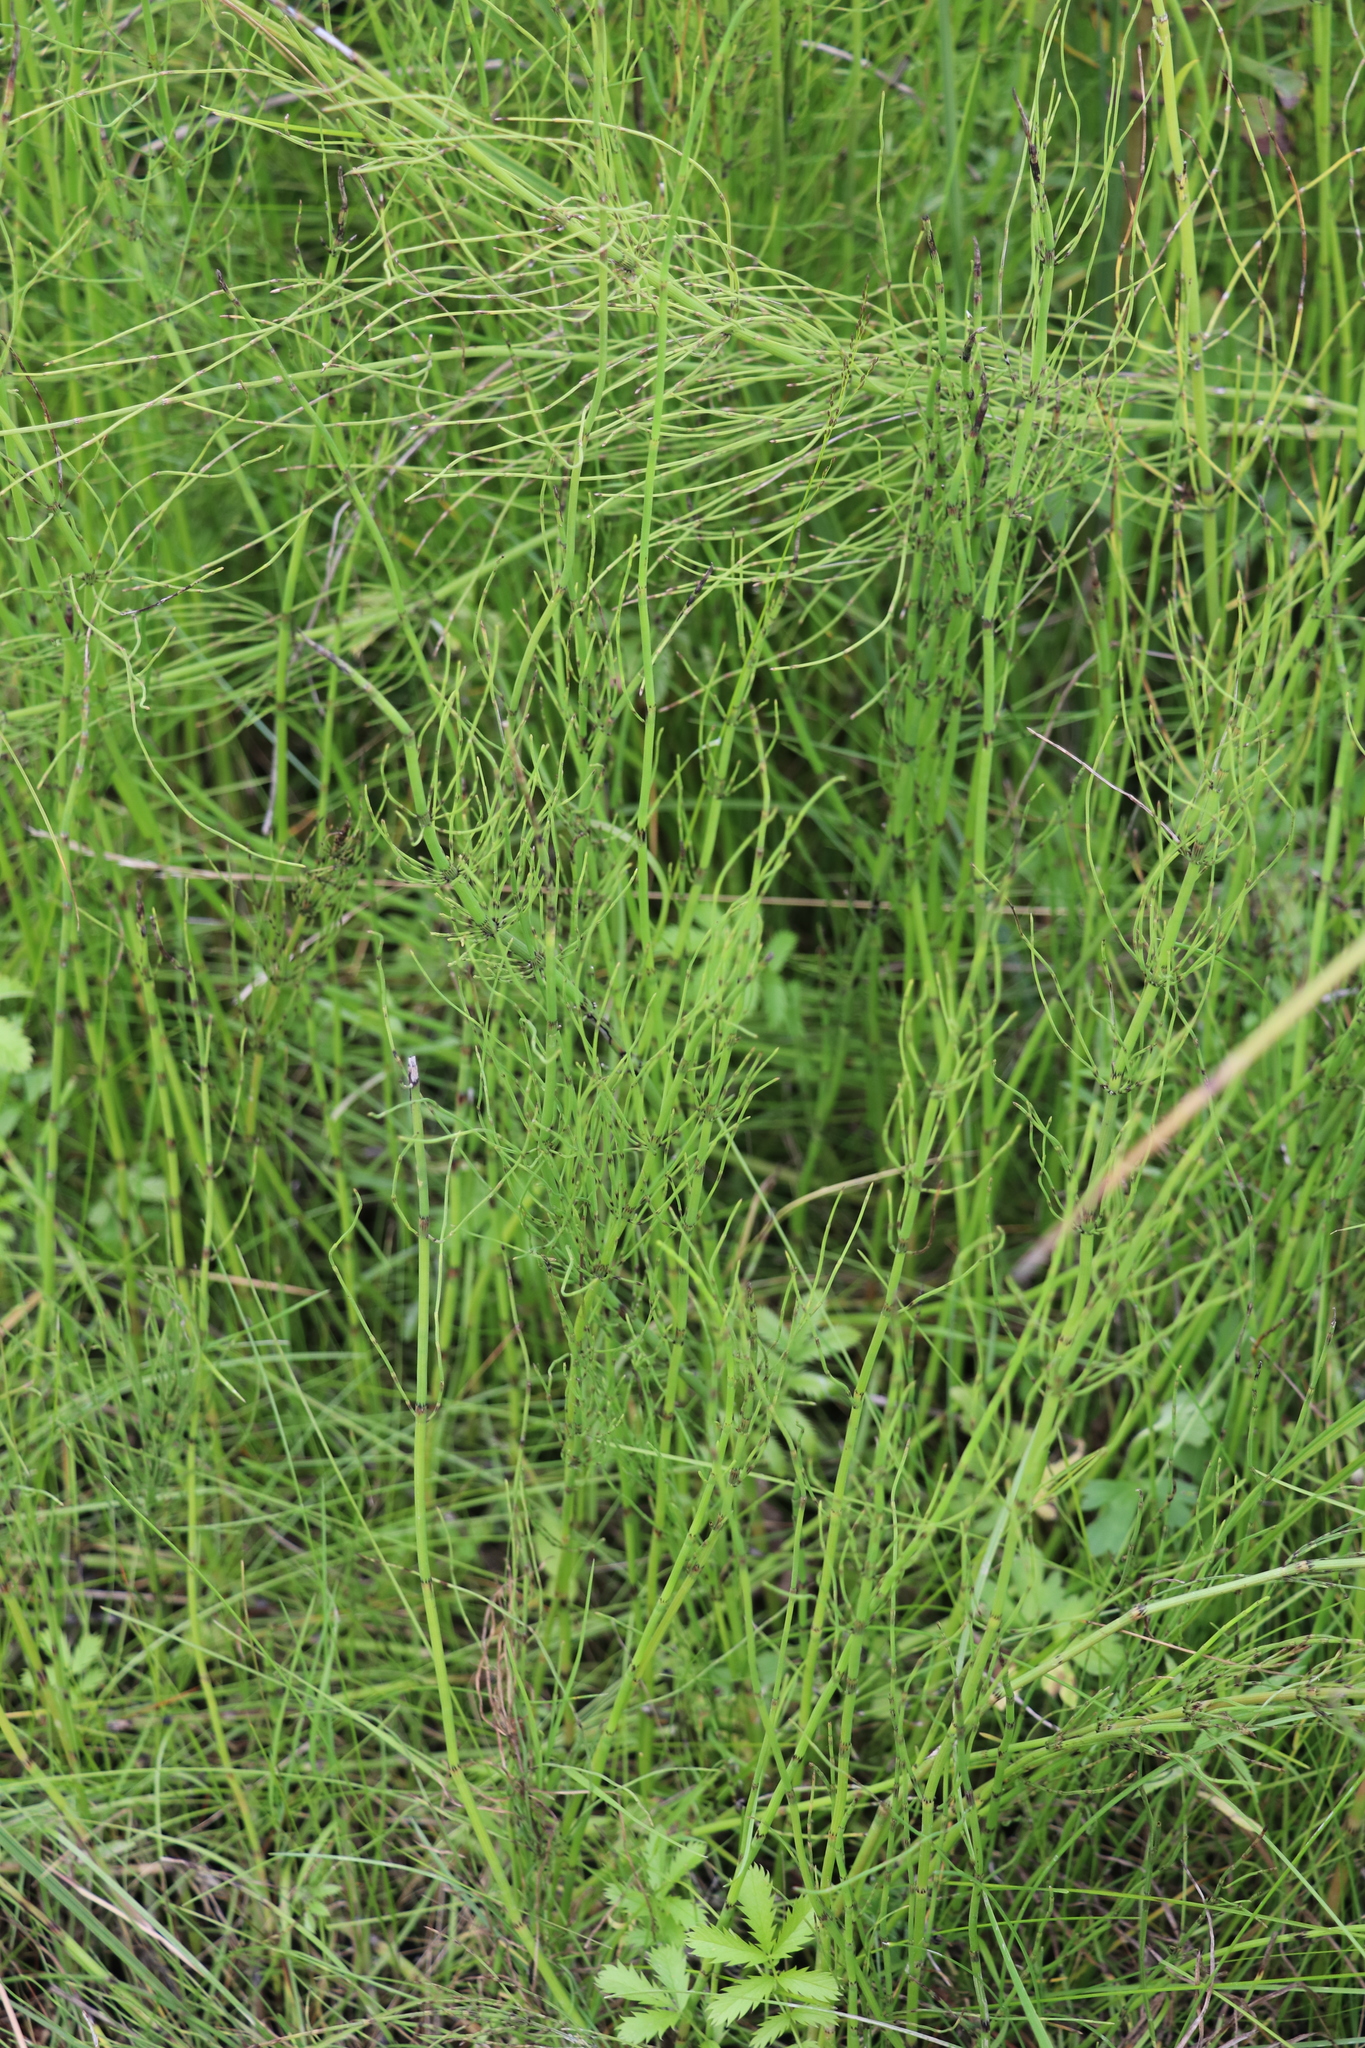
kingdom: Plantae
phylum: Tracheophyta
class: Polypodiopsida
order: Equisetales
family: Equisetaceae
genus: Equisetum
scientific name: Equisetum fluviatile
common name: Water horsetail
